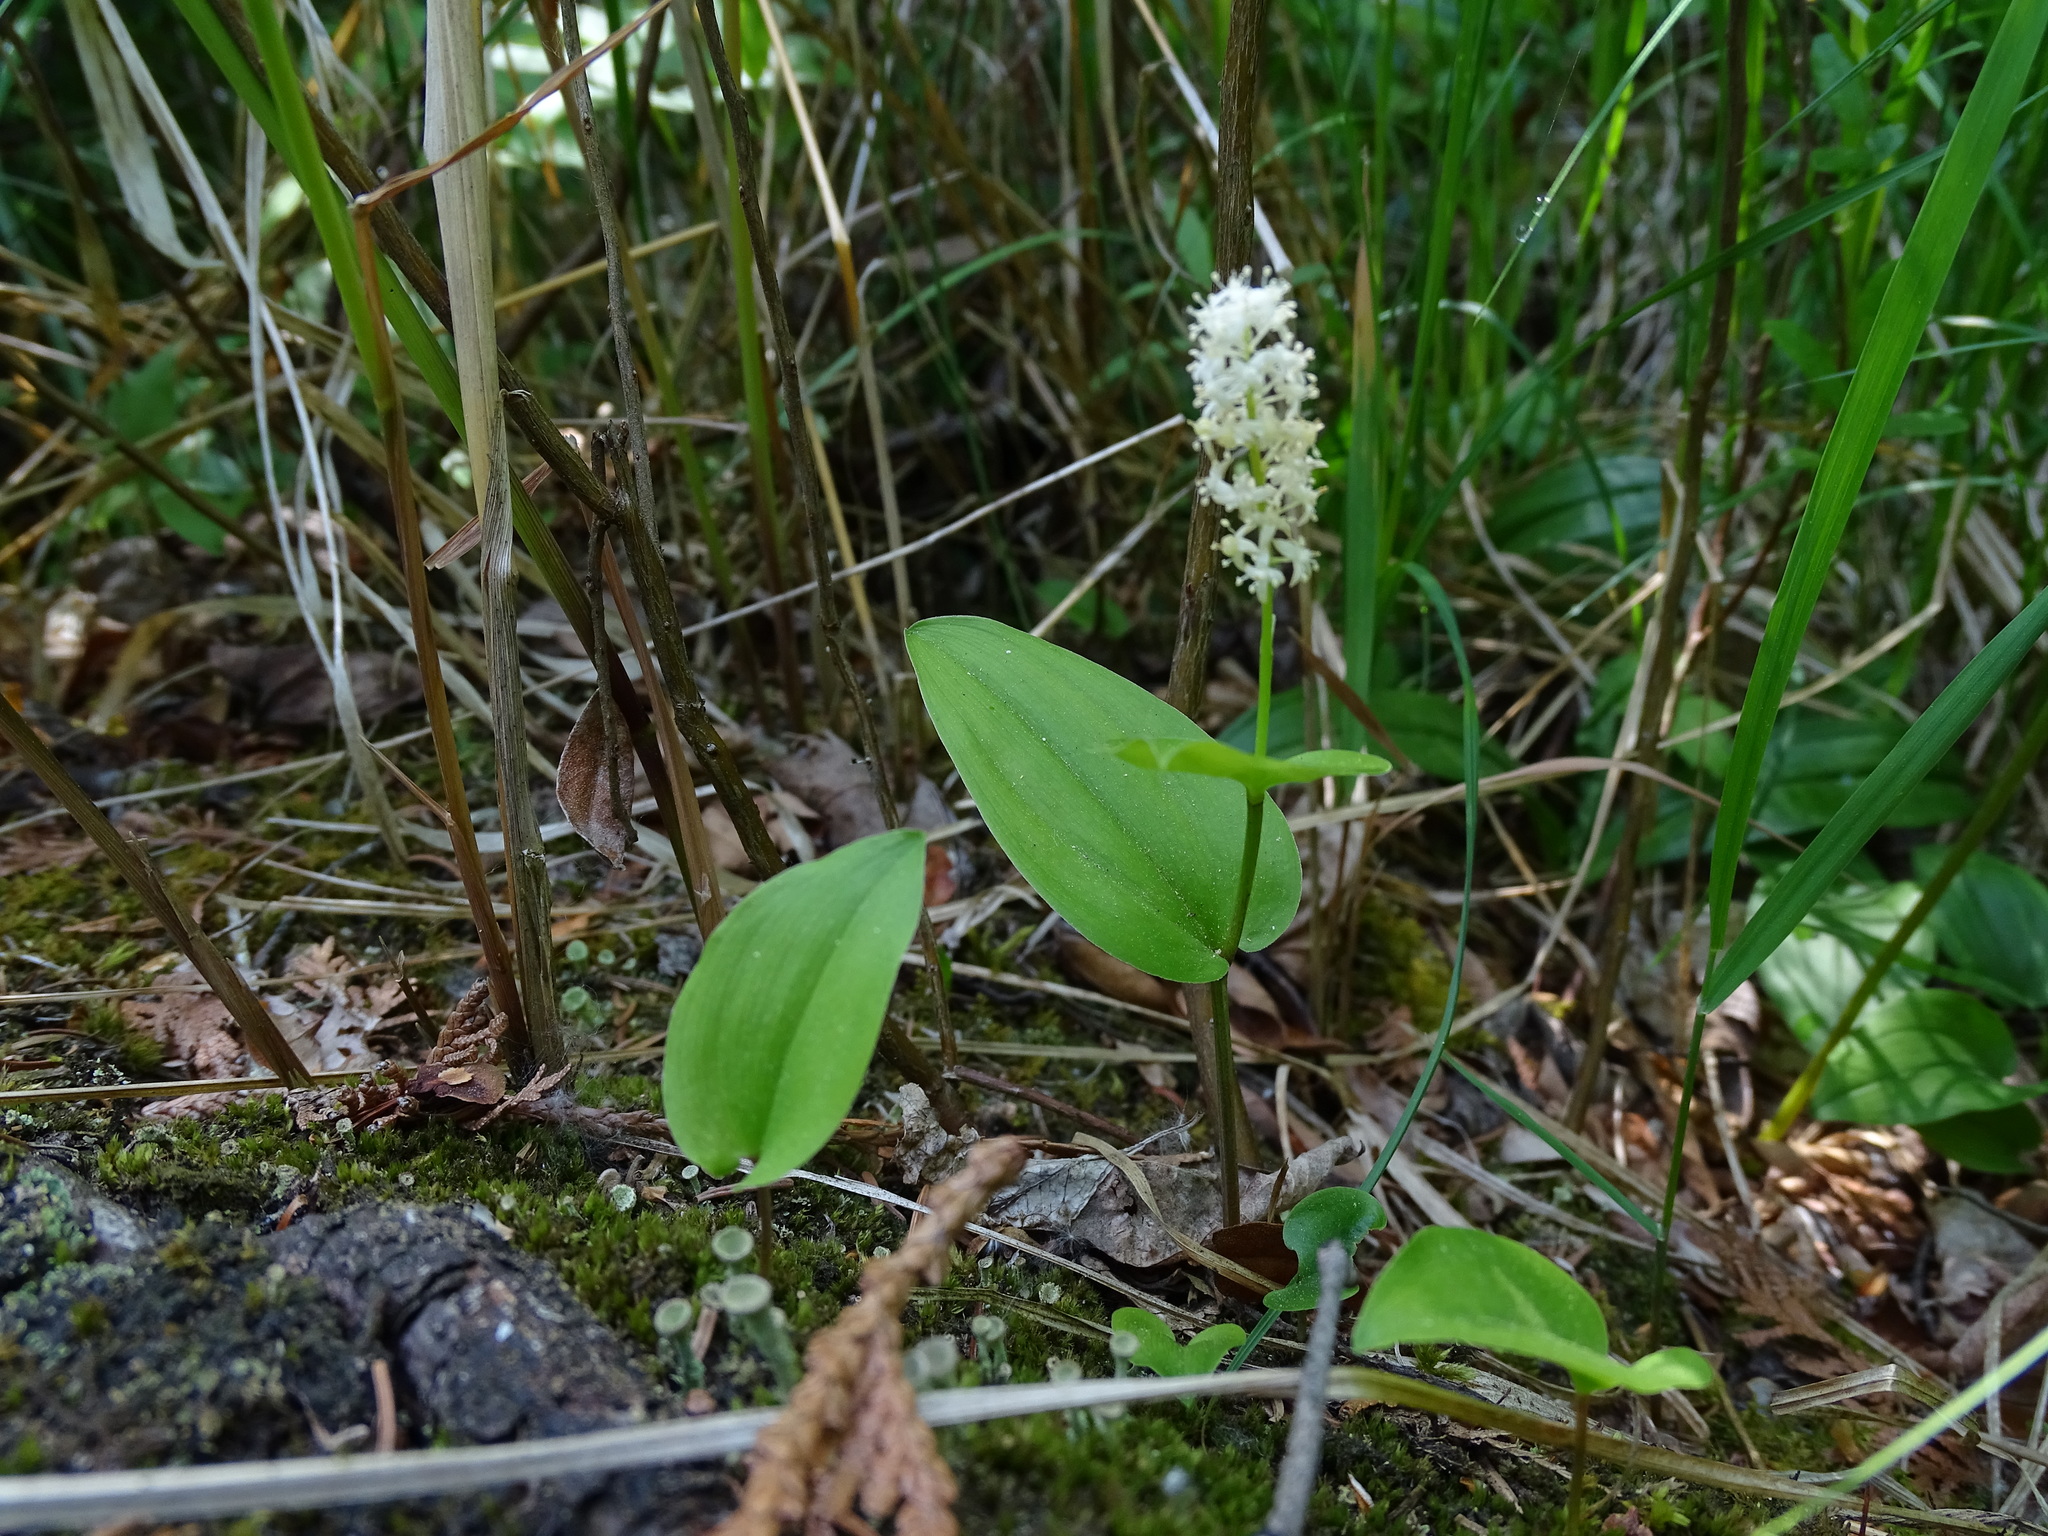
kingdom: Plantae
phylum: Tracheophyta
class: Liliopsida
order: Asparagales
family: Asparagaceae
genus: Maianthemum
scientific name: Maianthemum canadense
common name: False lily-of-the-valley
